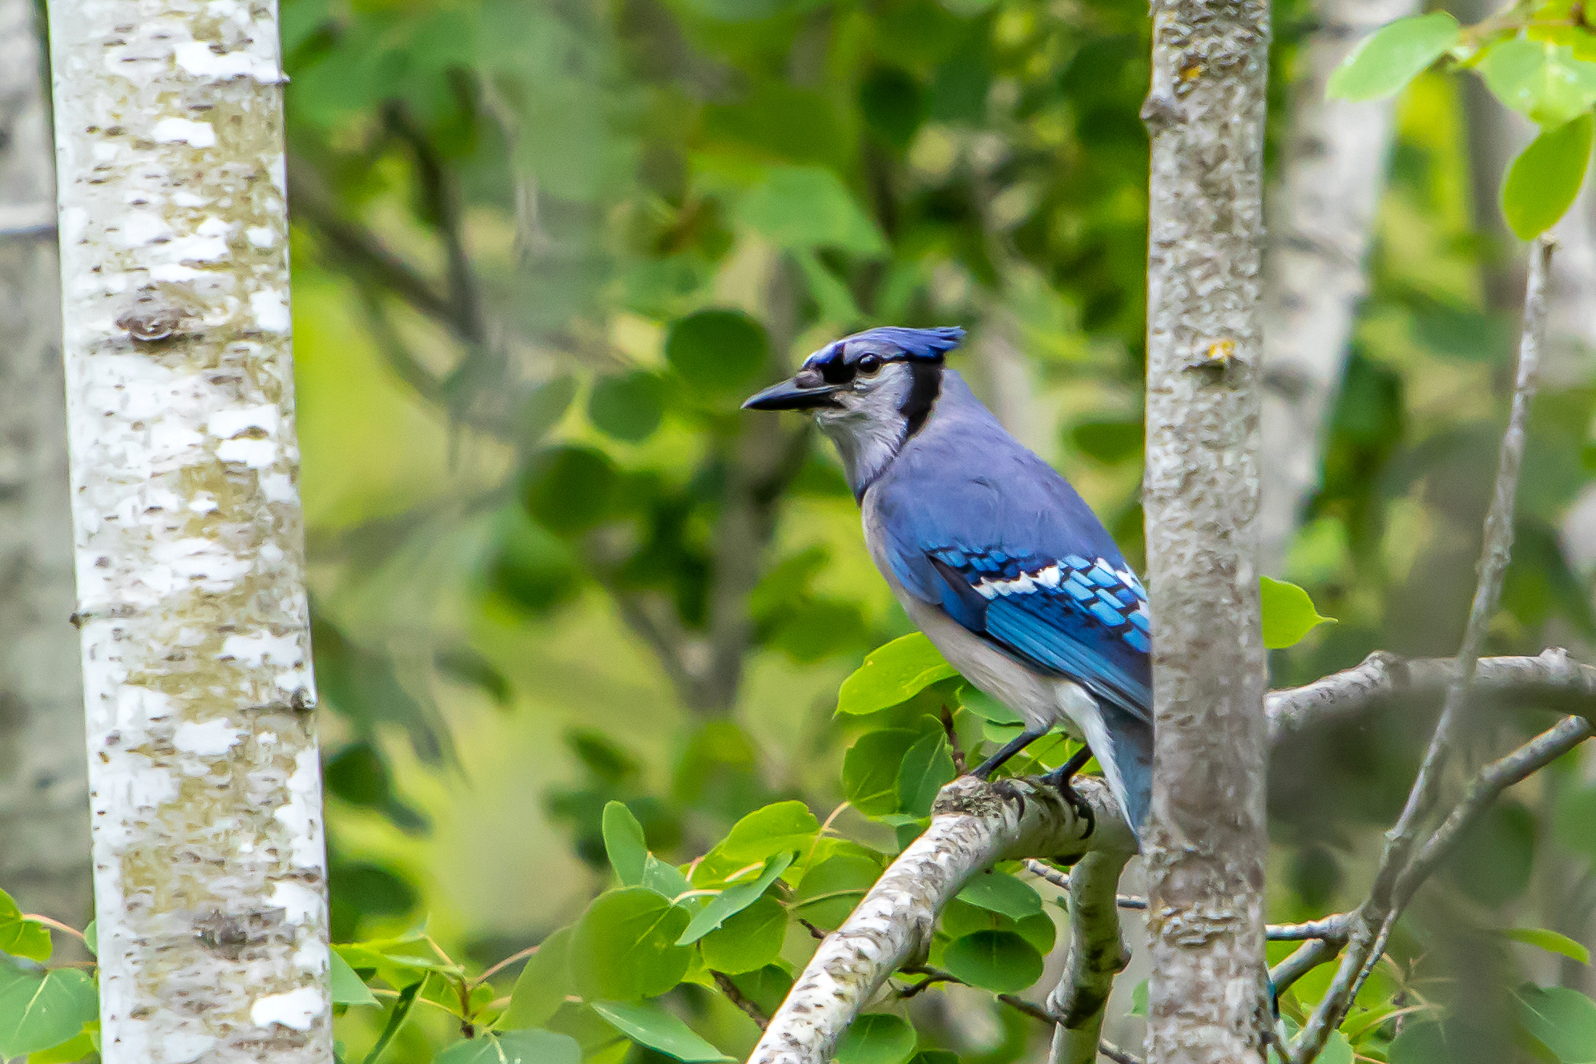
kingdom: Animalia
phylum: Chordata
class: Aves
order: Passeriformes
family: Corvidae
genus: Cyanocitta
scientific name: Cyanocitta cristata
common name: Blue jay
